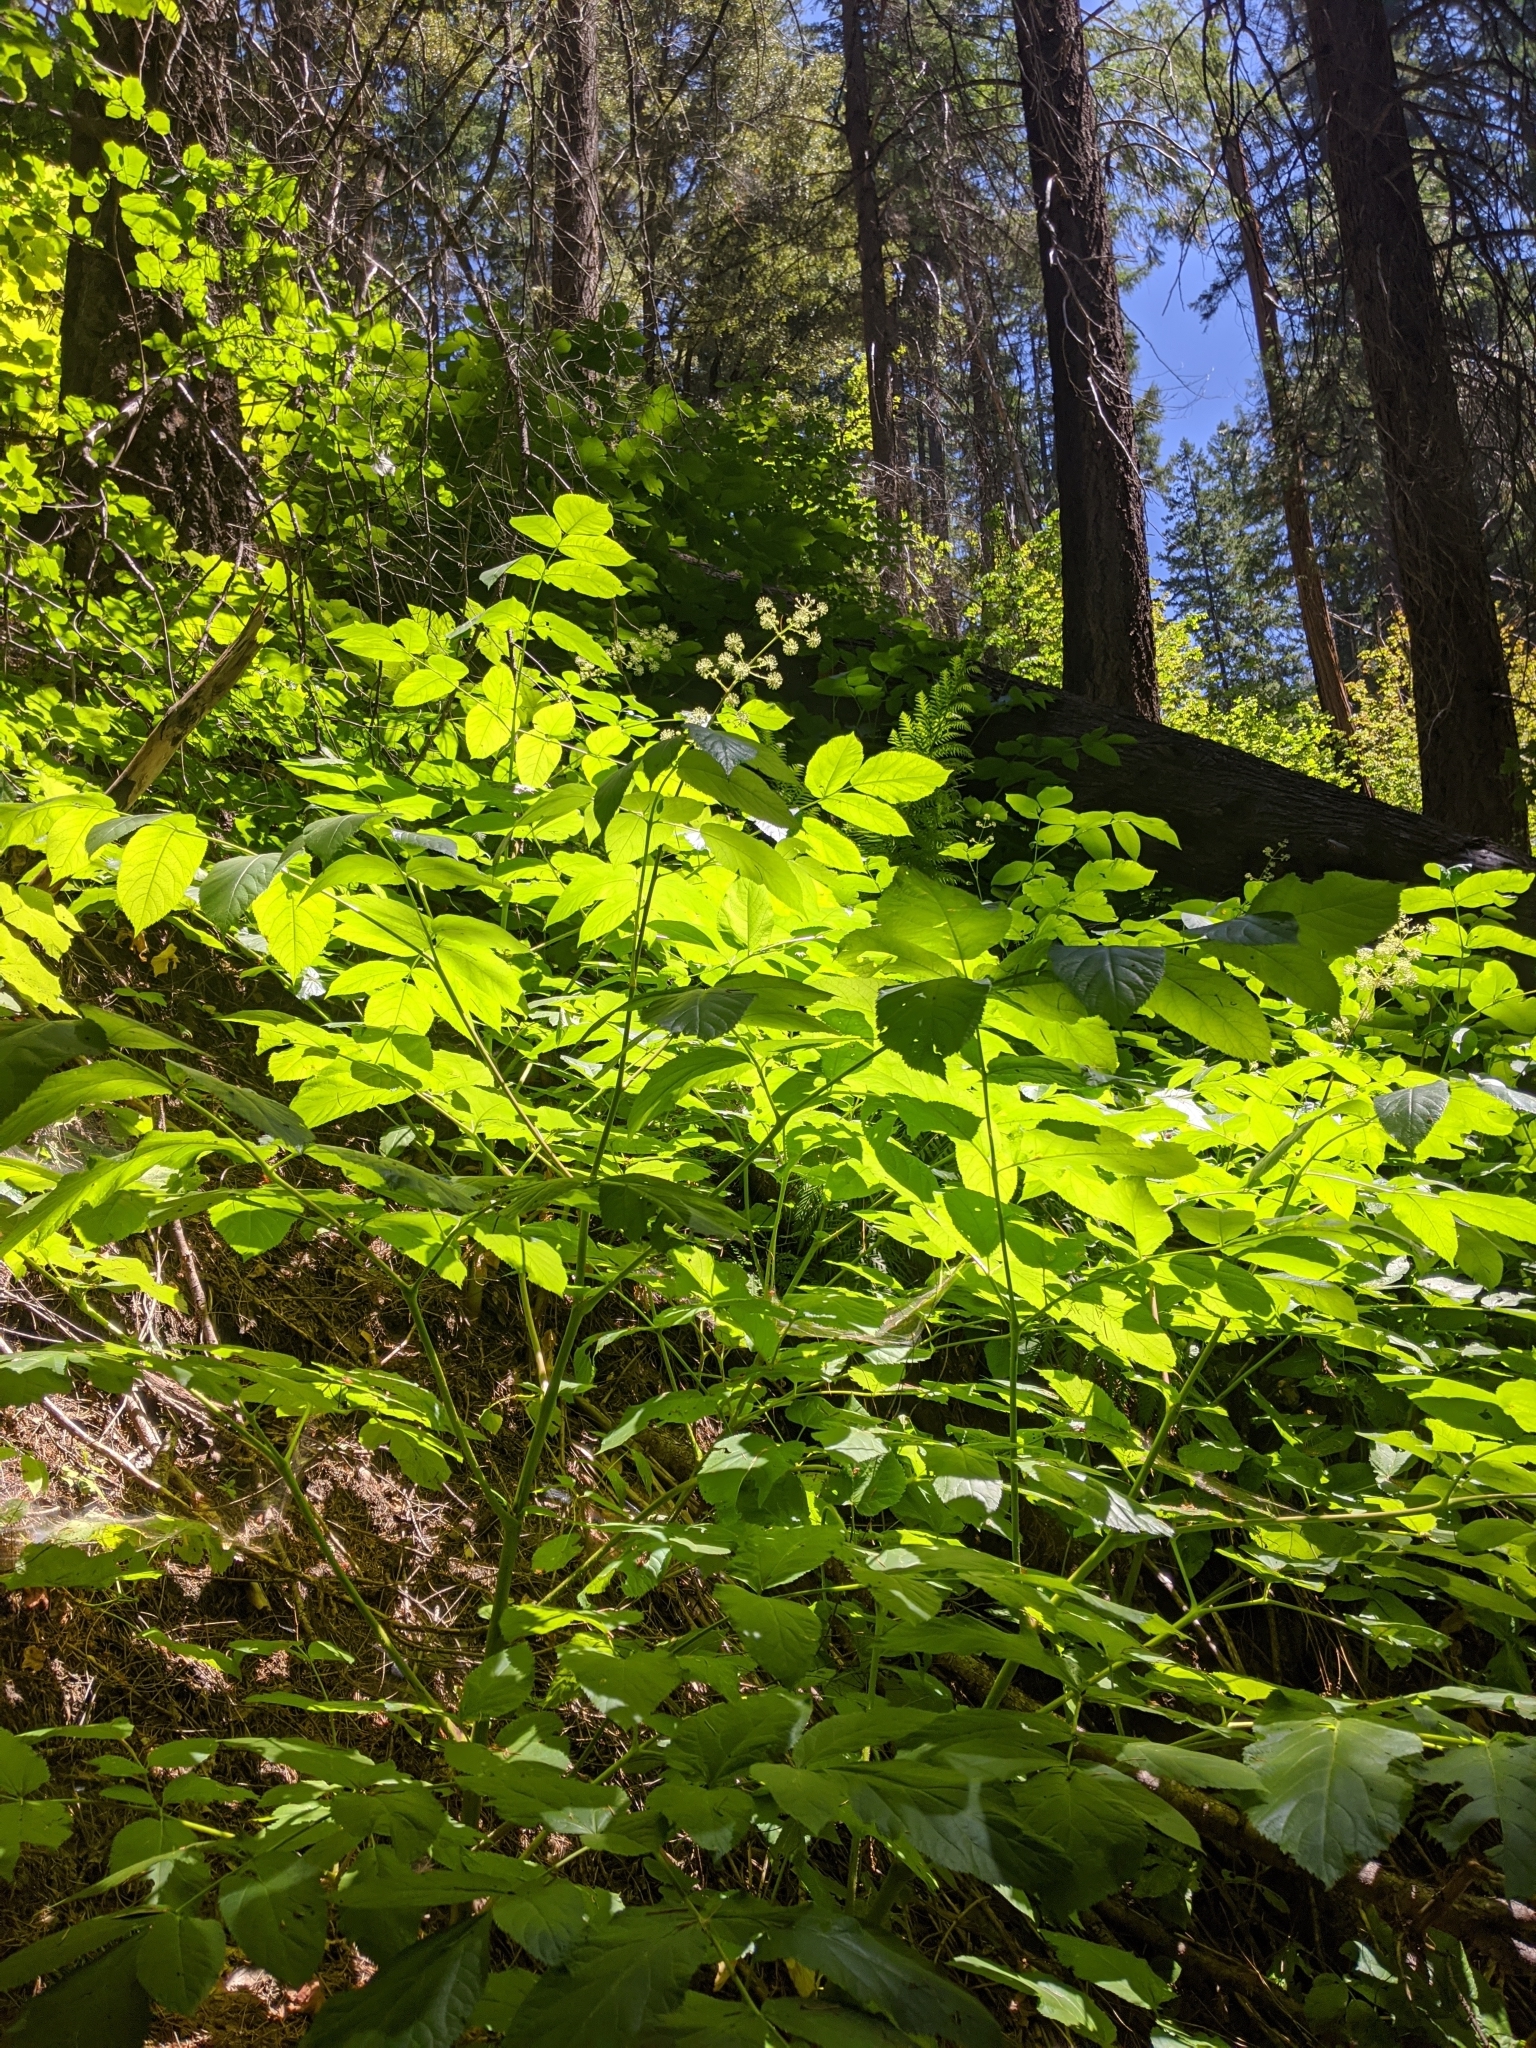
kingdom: Plantae
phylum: Tracheophyta
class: Magnoliopsida
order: Apiales
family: Araliaceae
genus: Aralia
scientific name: Aralia californica
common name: California-ginseng
